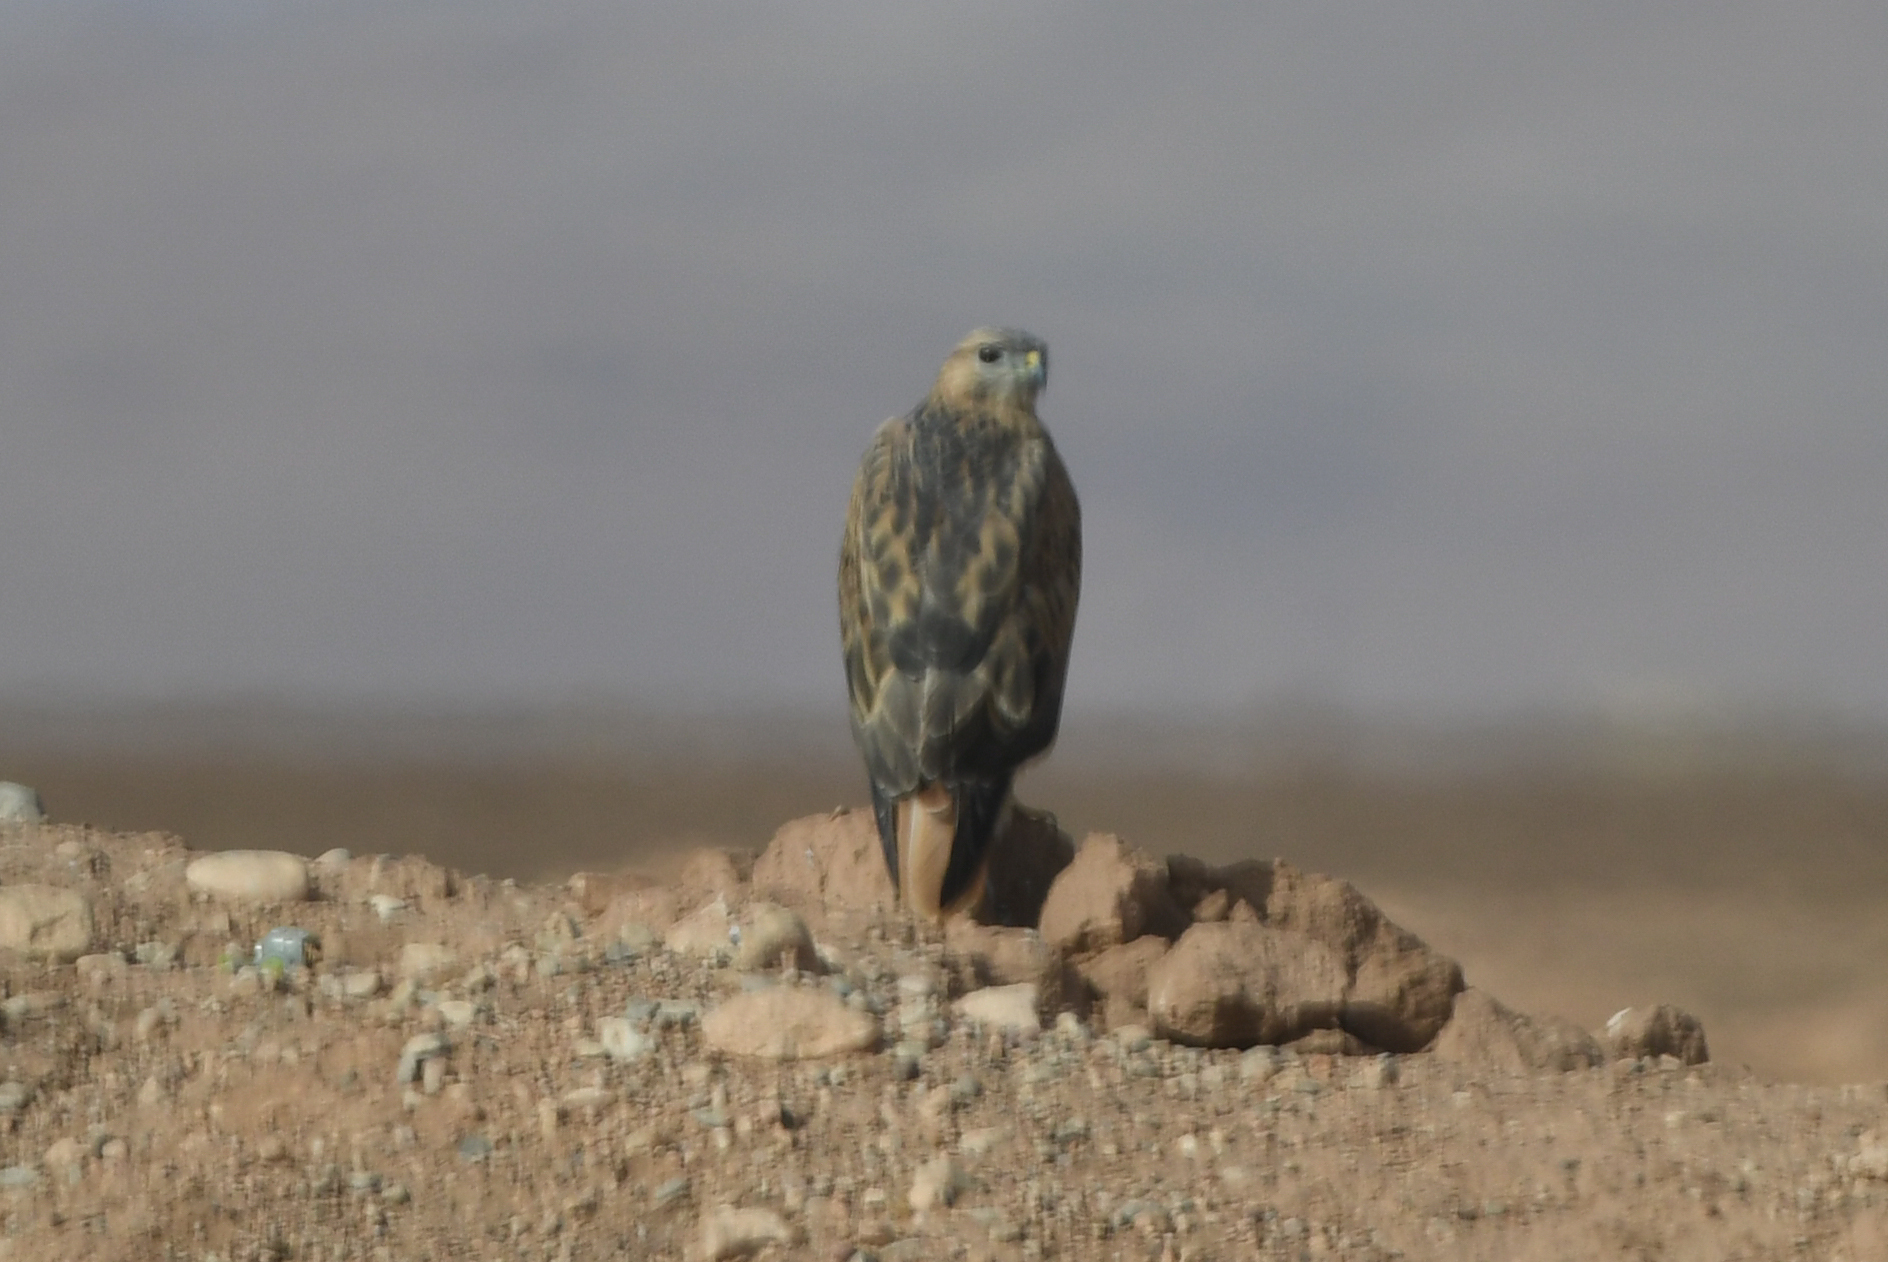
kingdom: Animalia
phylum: Chordata
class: Aves
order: Accipitriformes
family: Accipitridae
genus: Buteo
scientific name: Buteo rufinus
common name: Long-legged buzzard
